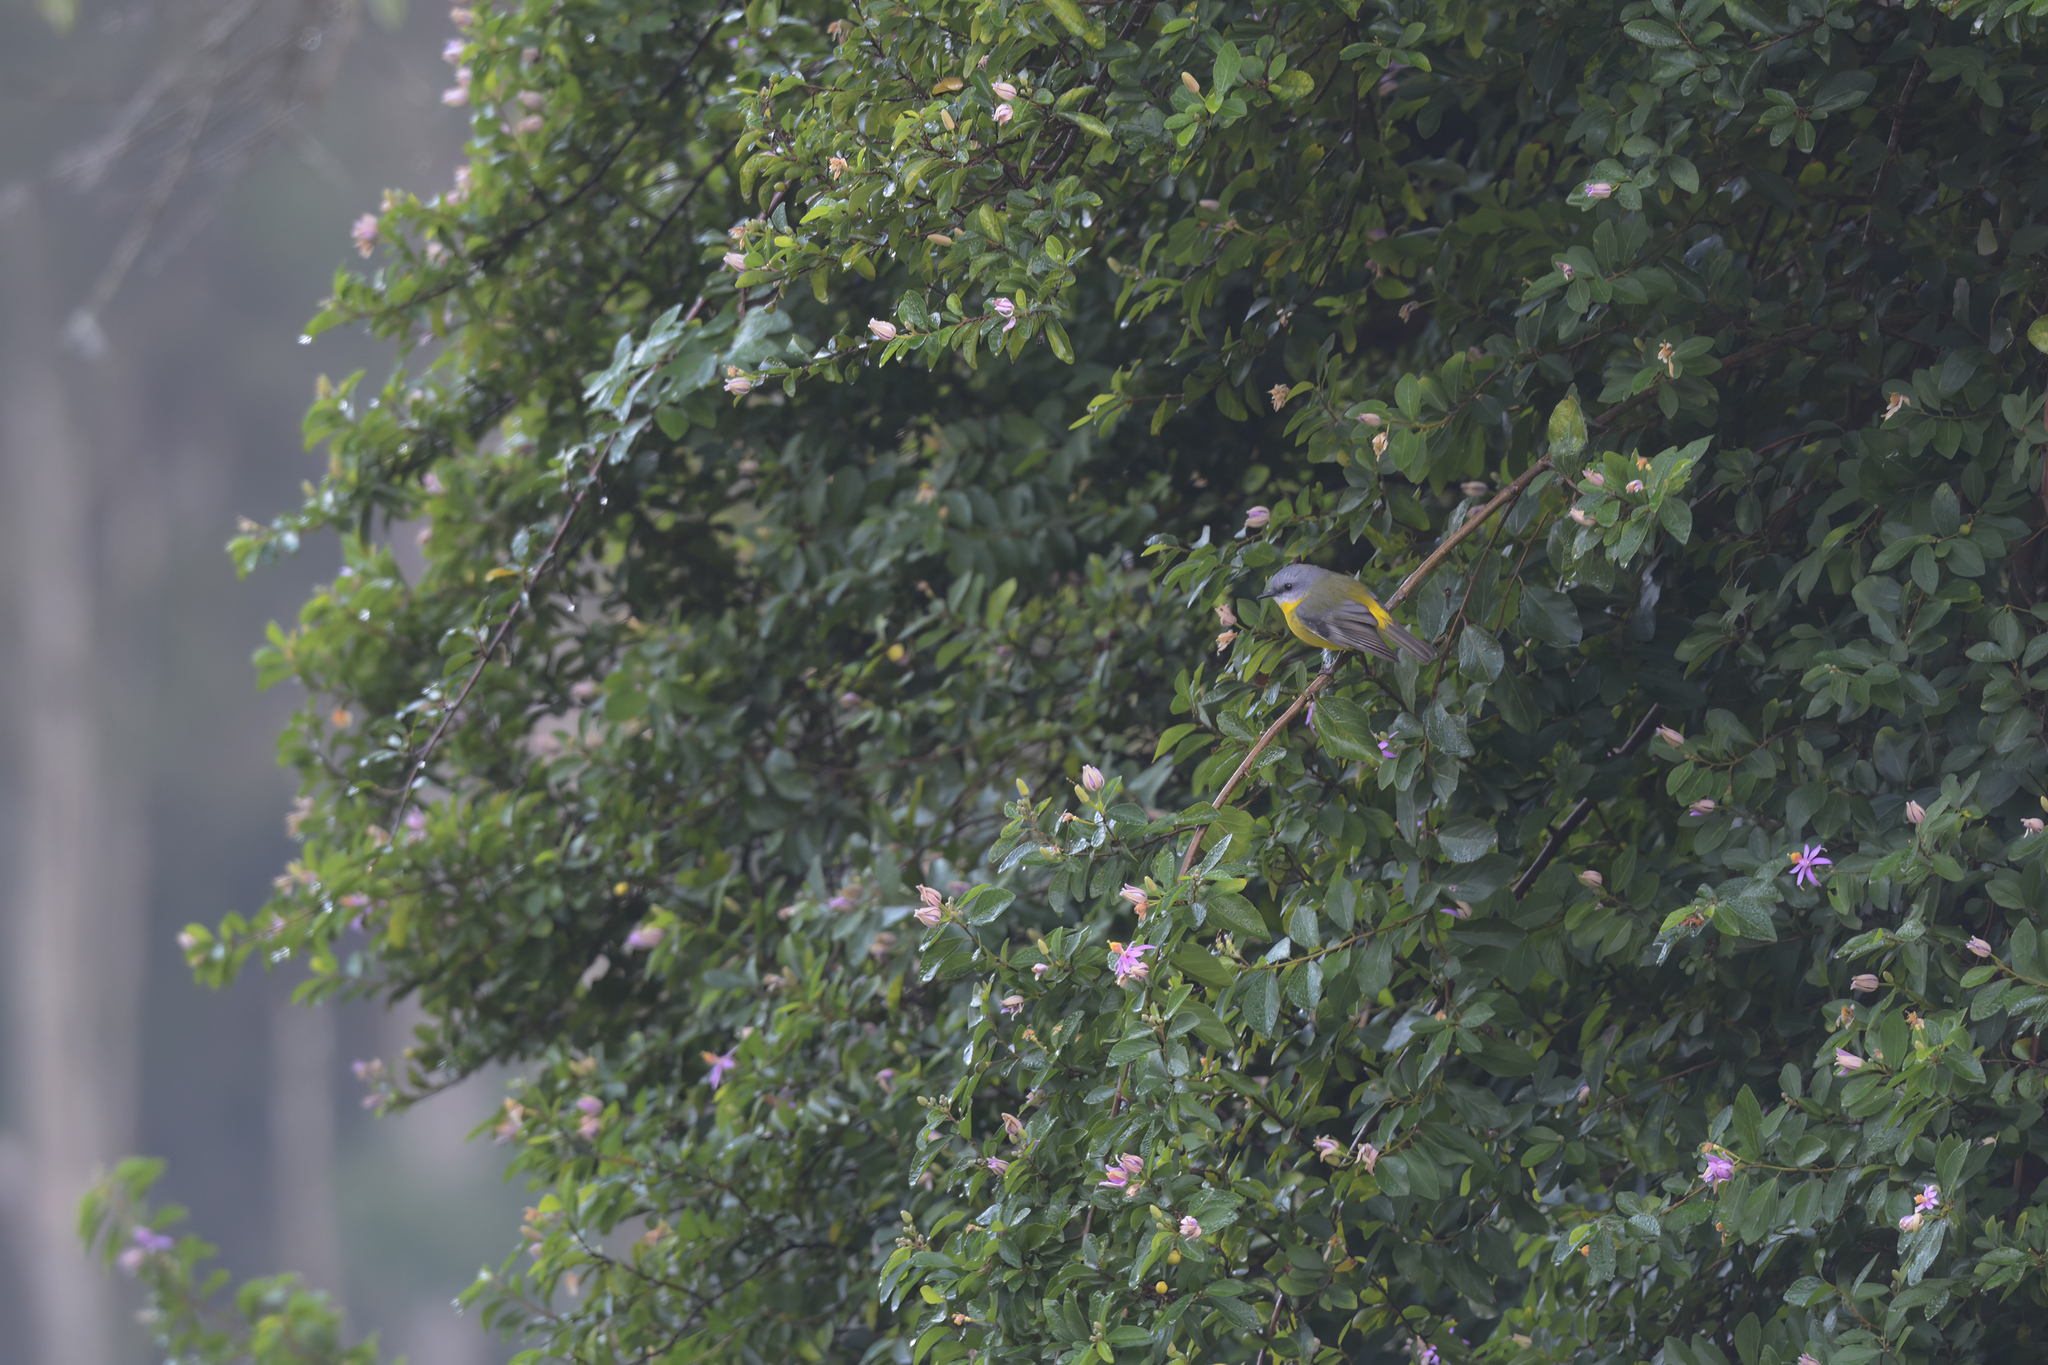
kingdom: Animalia
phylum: Chordata
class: Aves
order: Passeriformes
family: Petroicidae
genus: Eopsaltria
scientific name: Eopsaltria australis
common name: Eastern yellow robin
